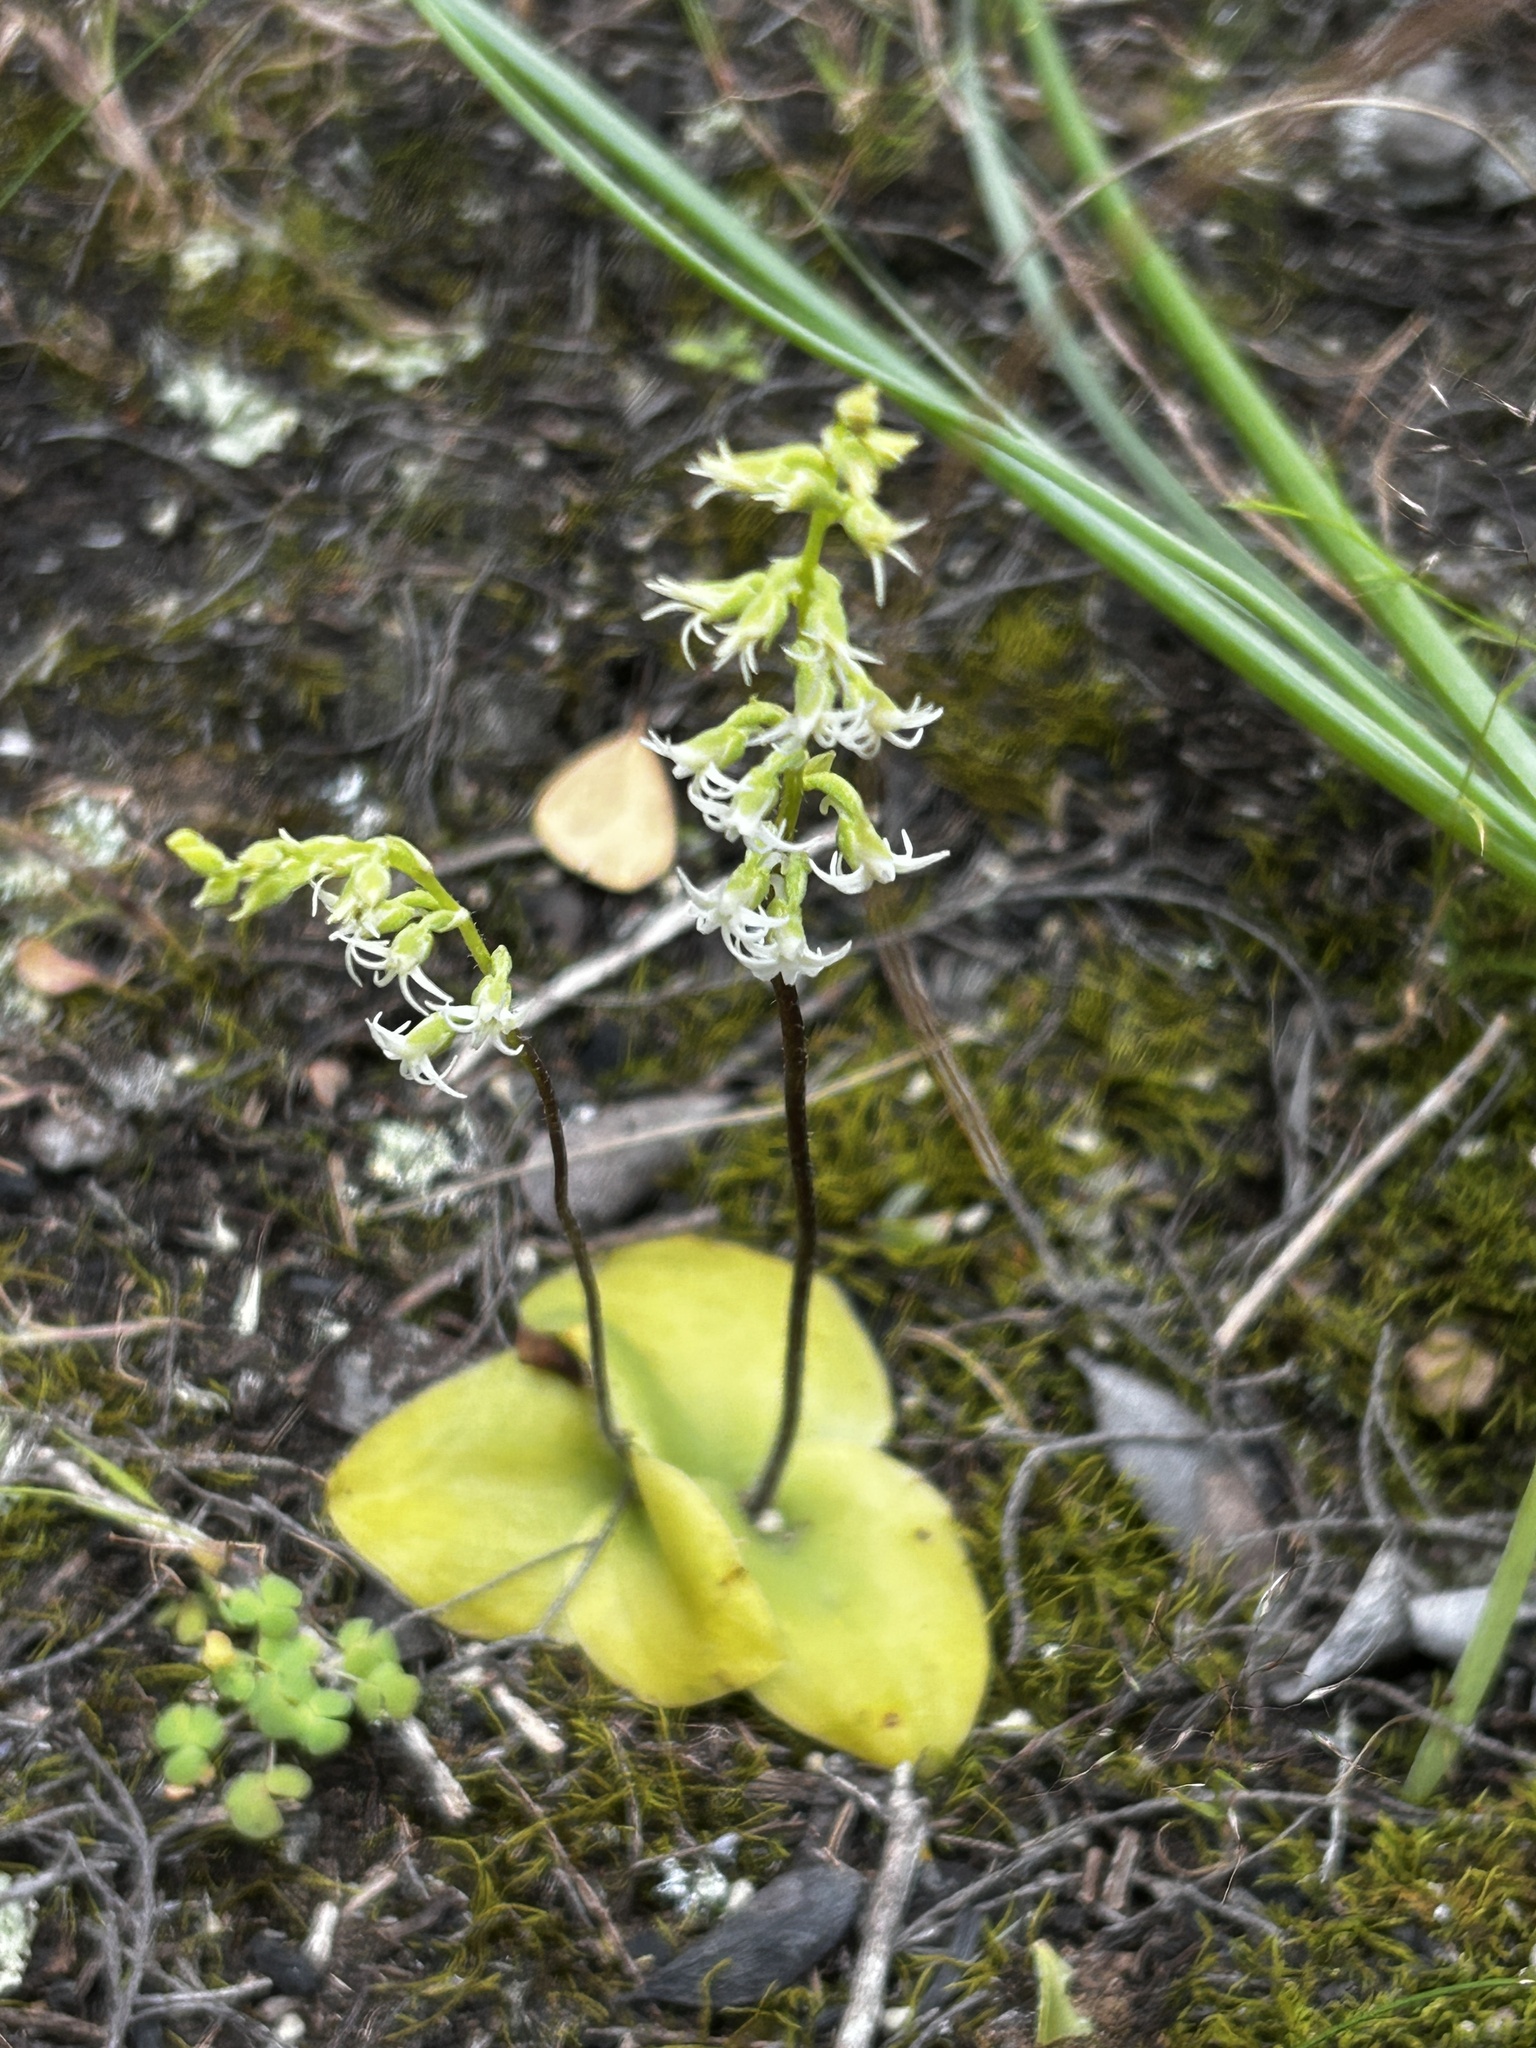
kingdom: Plantae
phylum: Tracheophyta
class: Liliopsida
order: Asparagales
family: Orchidaceae
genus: Holothrix
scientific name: Holothrix secunda
